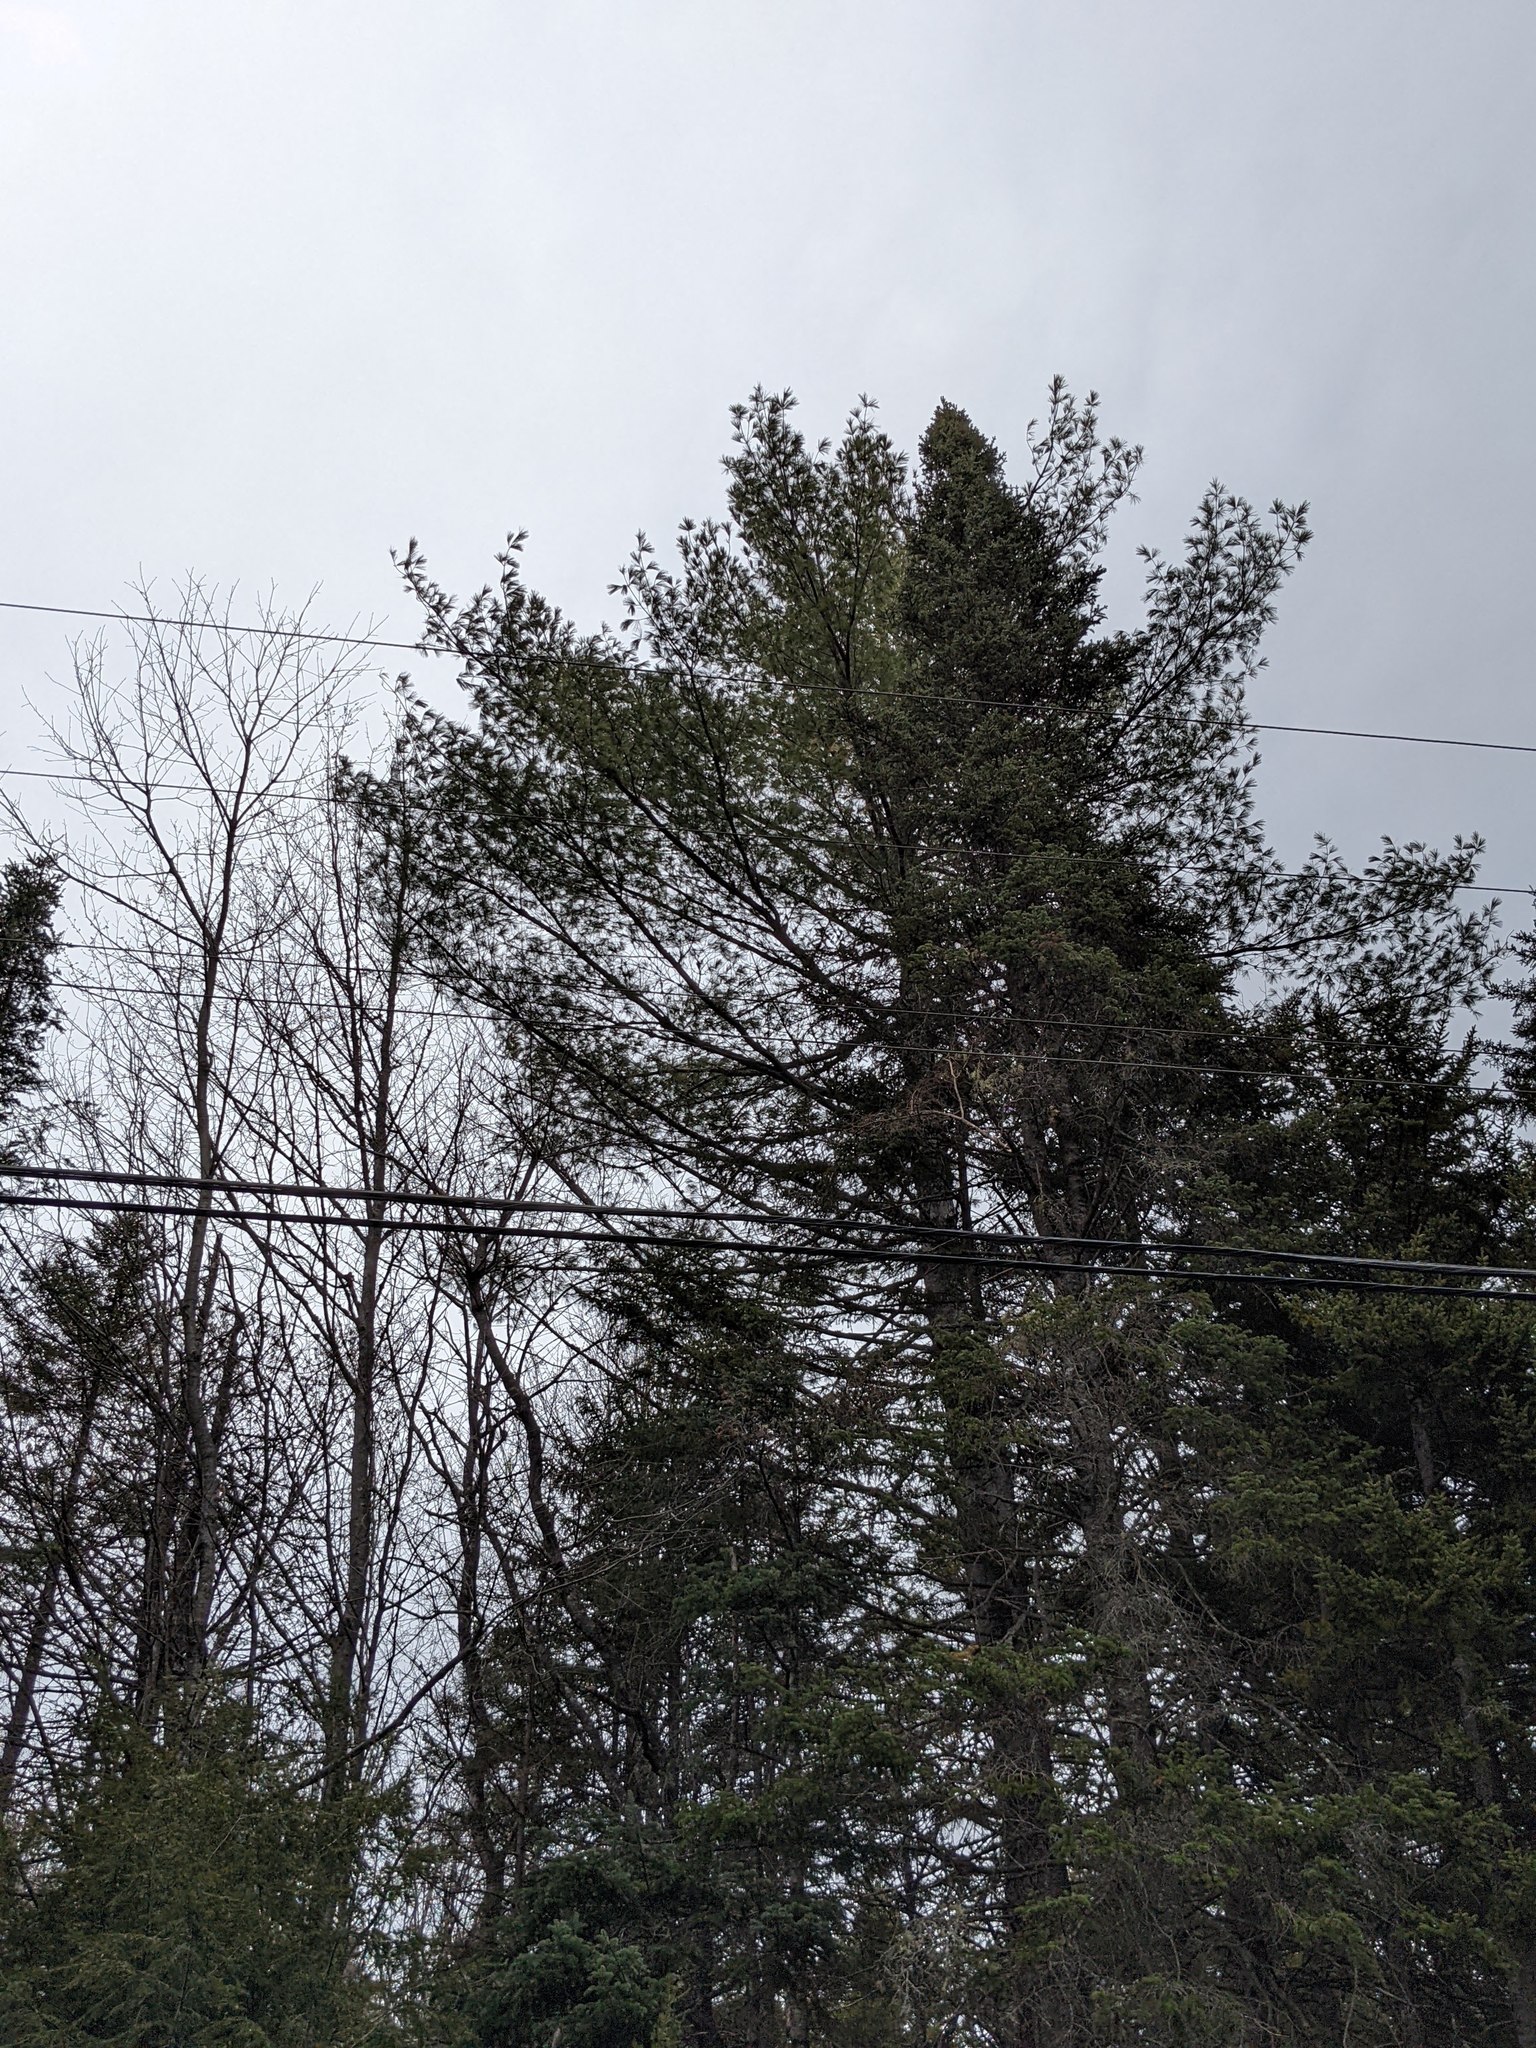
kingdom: Plantae
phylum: Tracheophyta
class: Pinopsida
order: Pinales
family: Pinaceae
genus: Pinus
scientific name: Pinus strobus
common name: Weymouth pine
